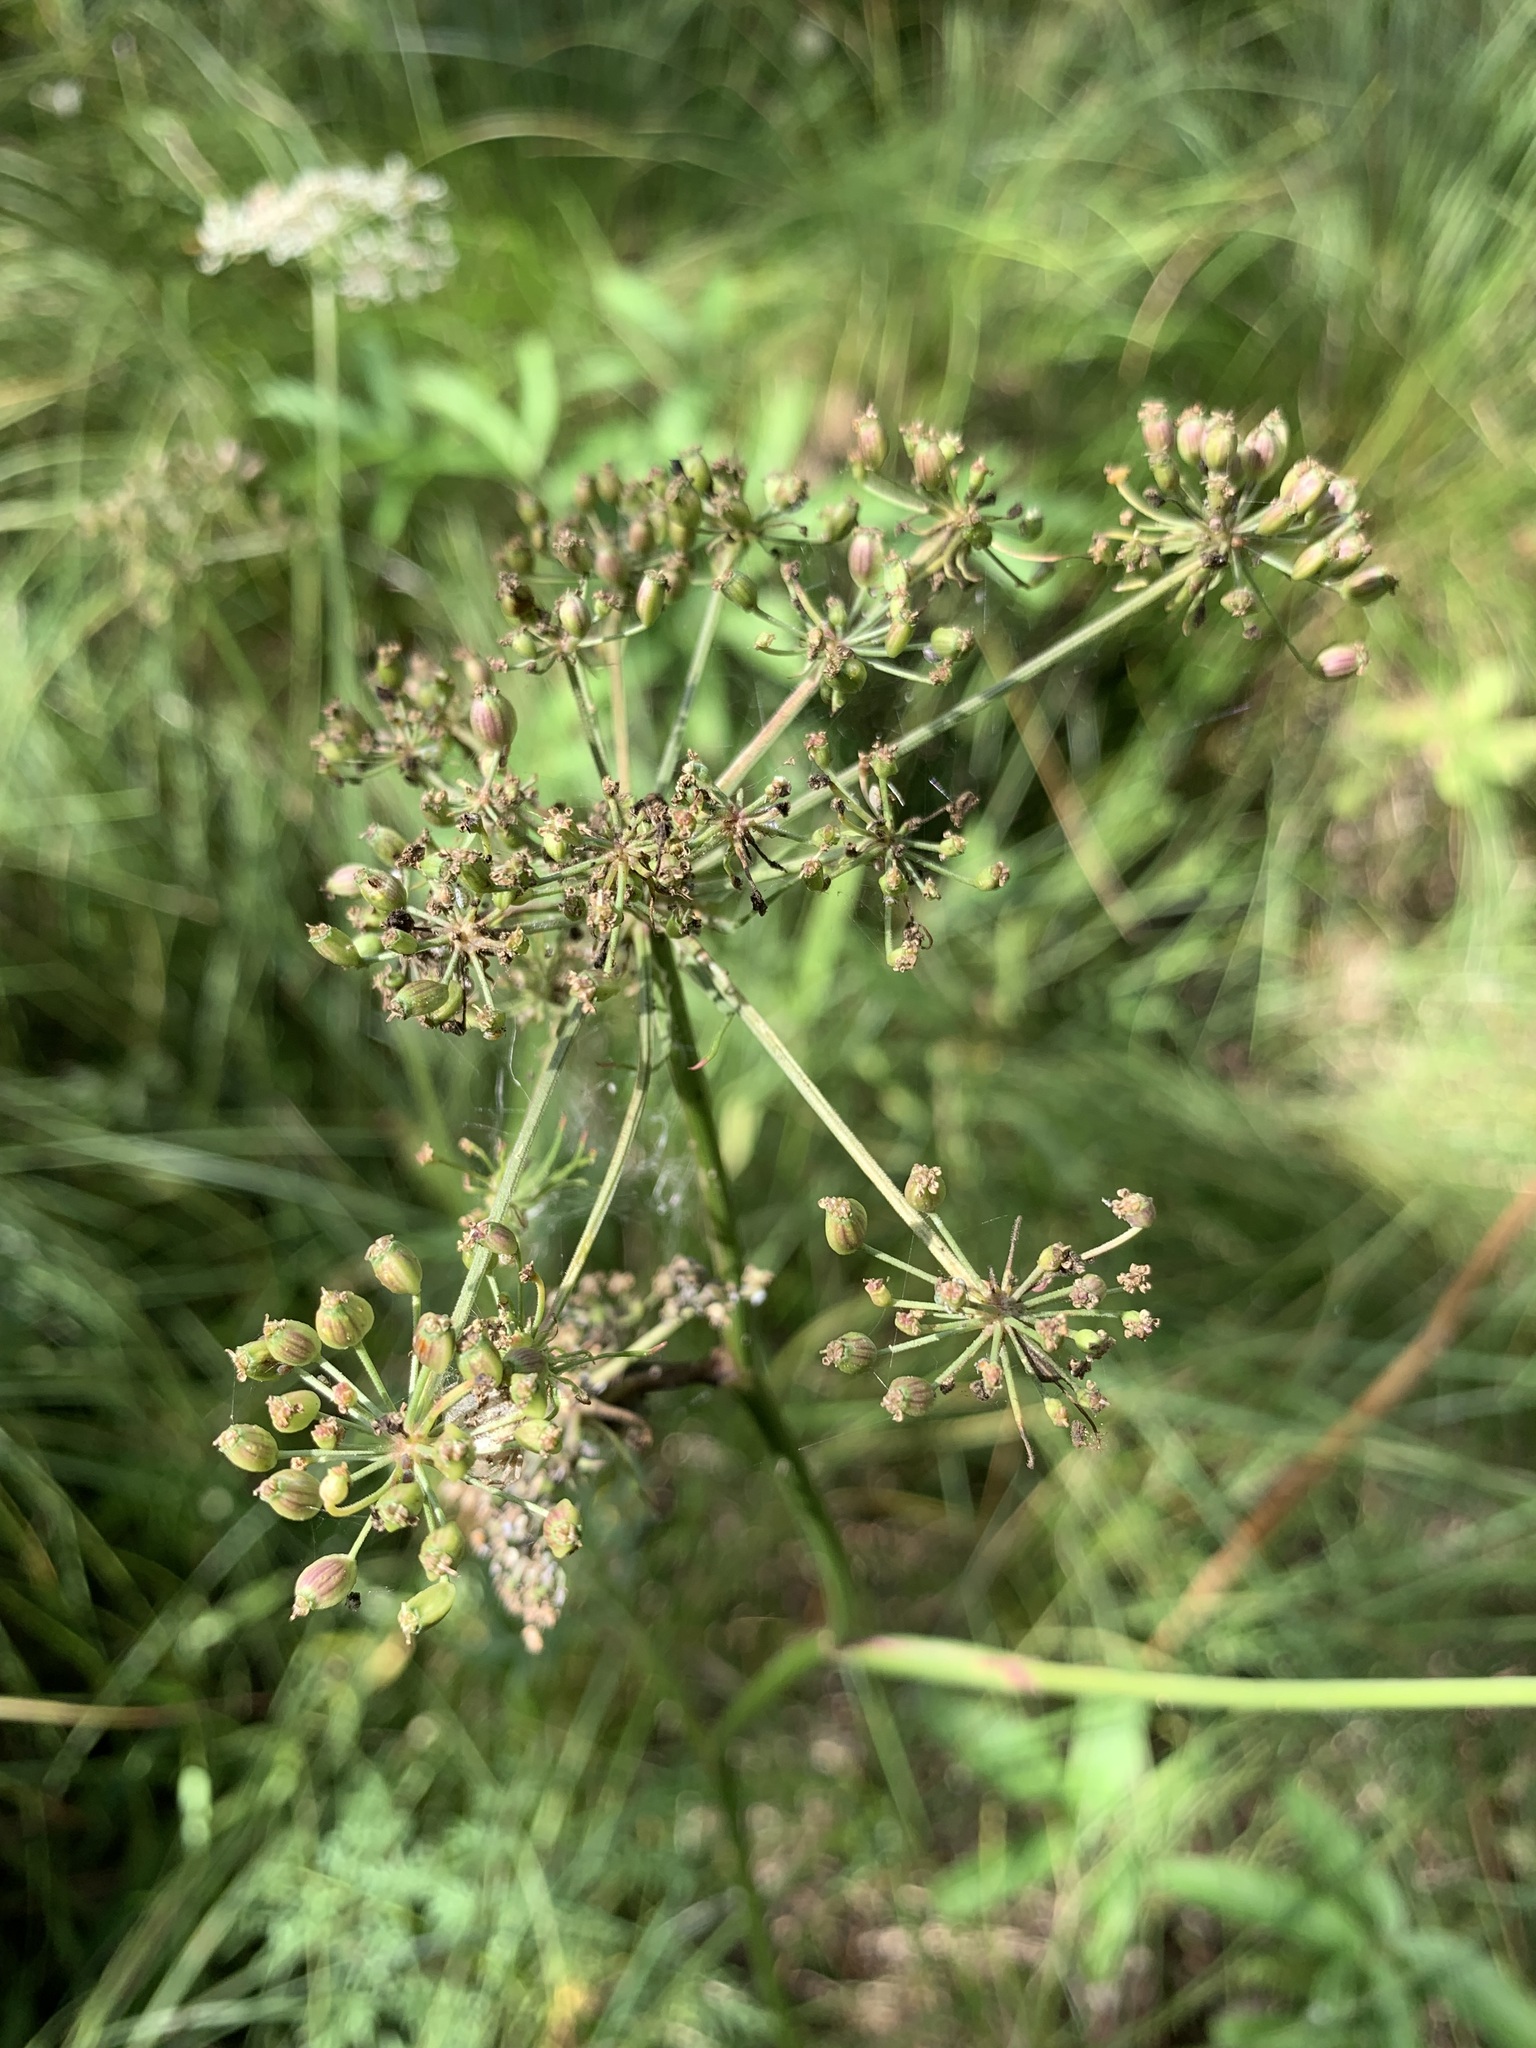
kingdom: Plantae
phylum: Tracheophyta
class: Magnoliopsida
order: Apiales
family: Apiaceae
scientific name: Apiaceae
